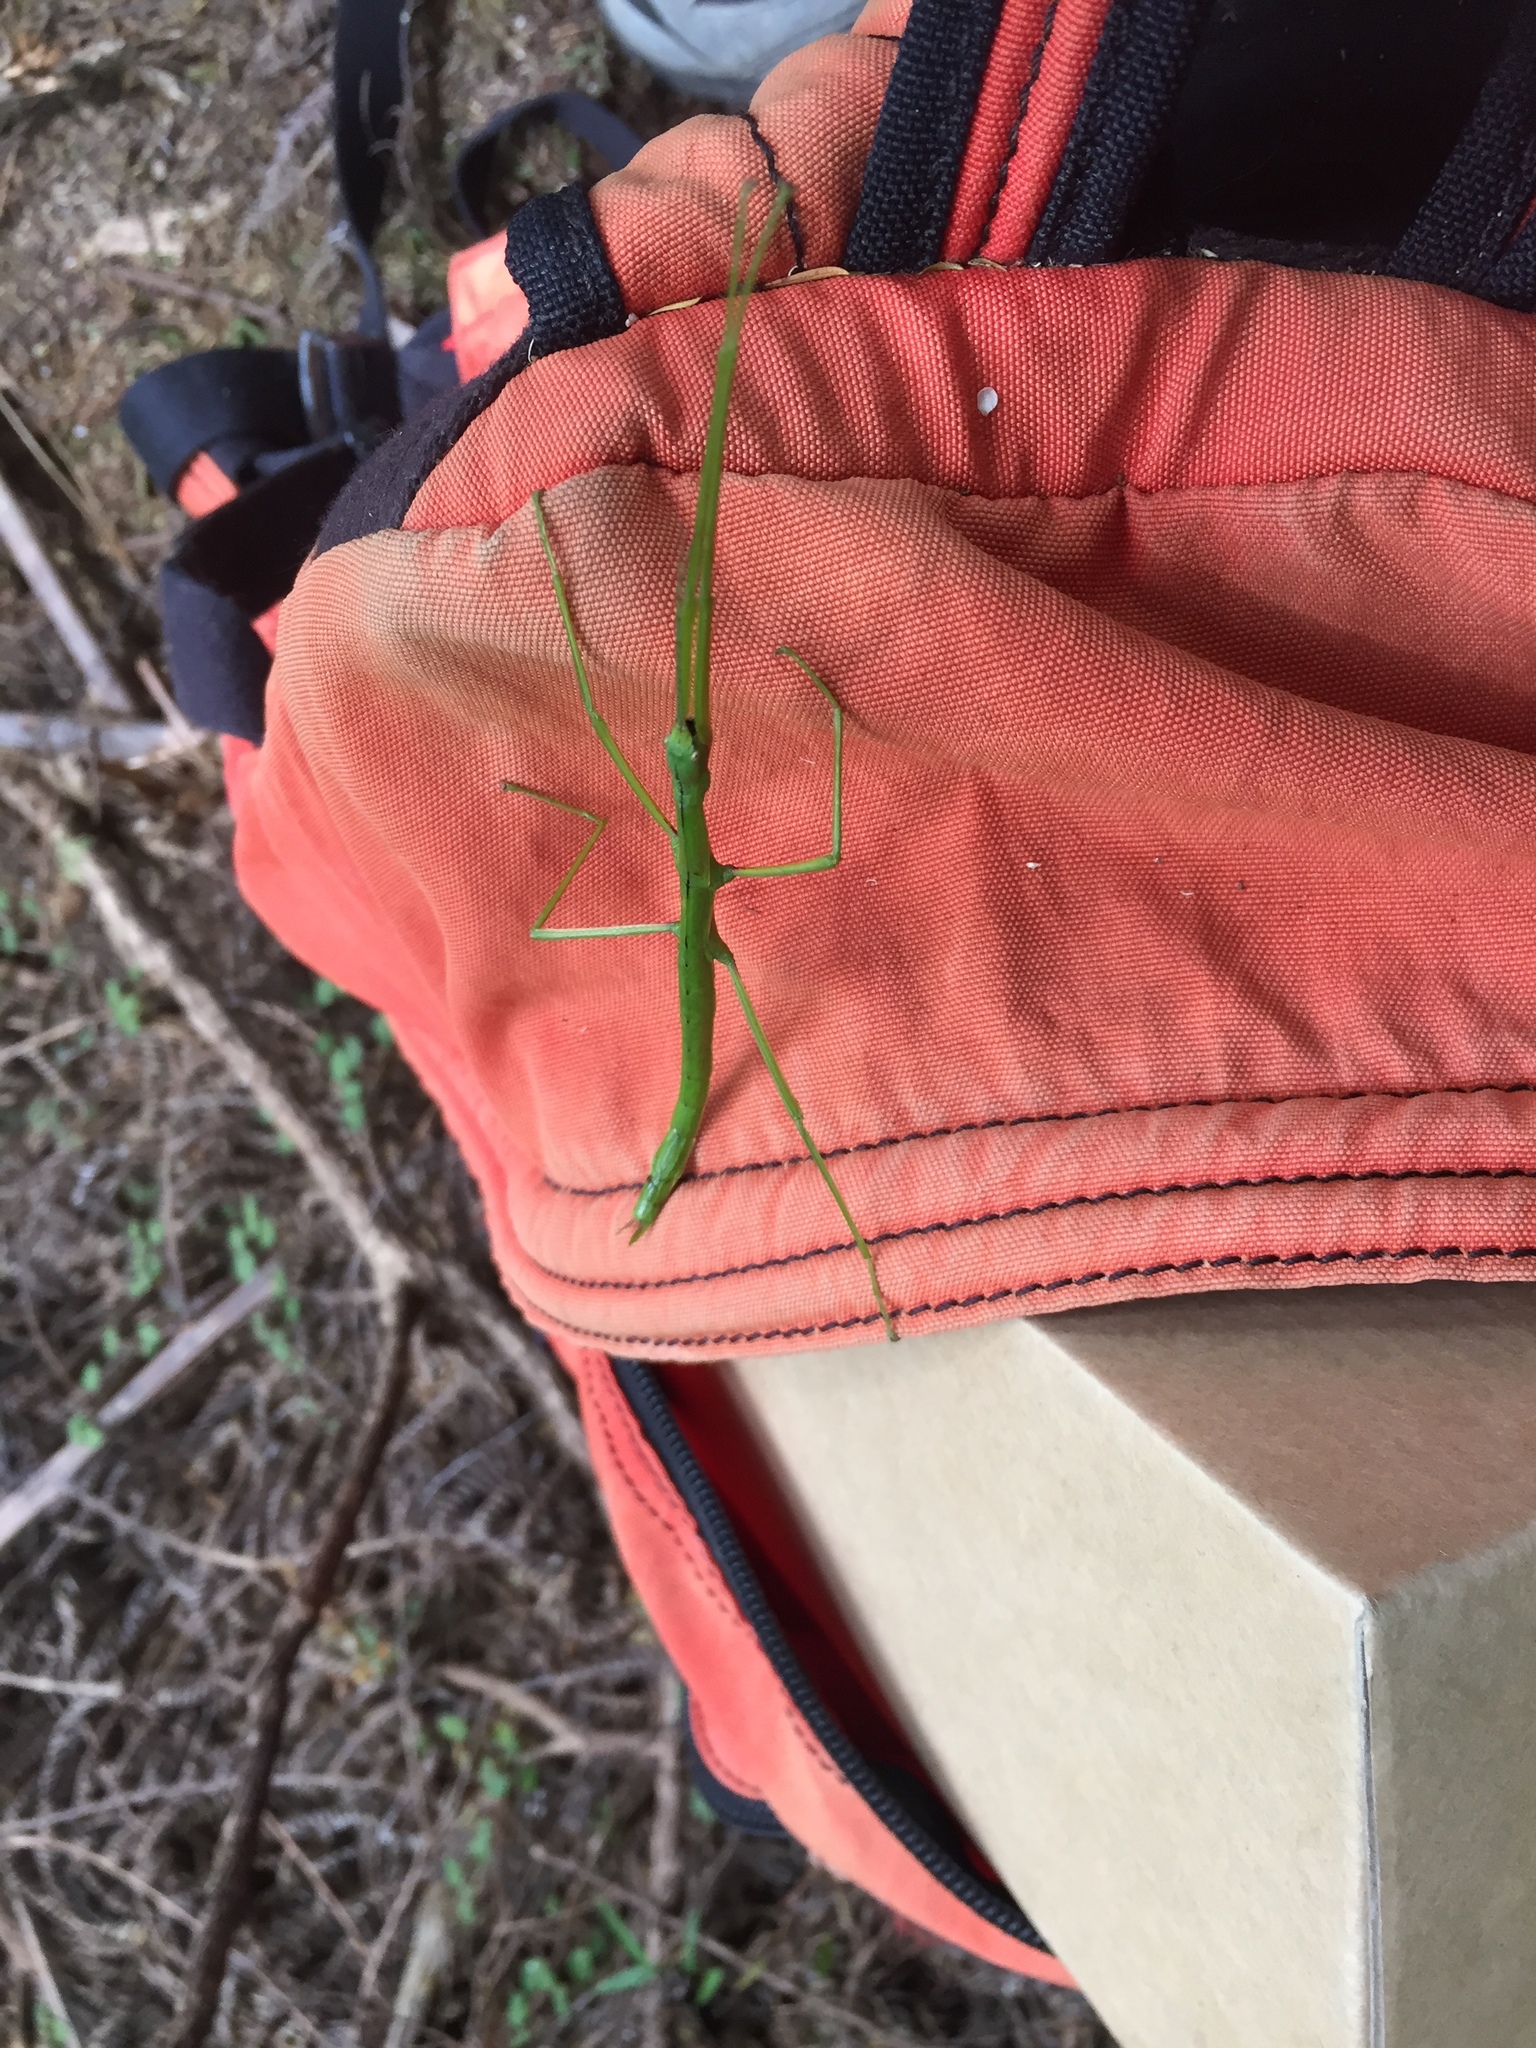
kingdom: Animalia
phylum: Arthropoda
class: Insecta
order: Phasmida
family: Phasmatidae
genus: Clitarchus
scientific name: Clitarchus hookeri
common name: Smooth stick insect
